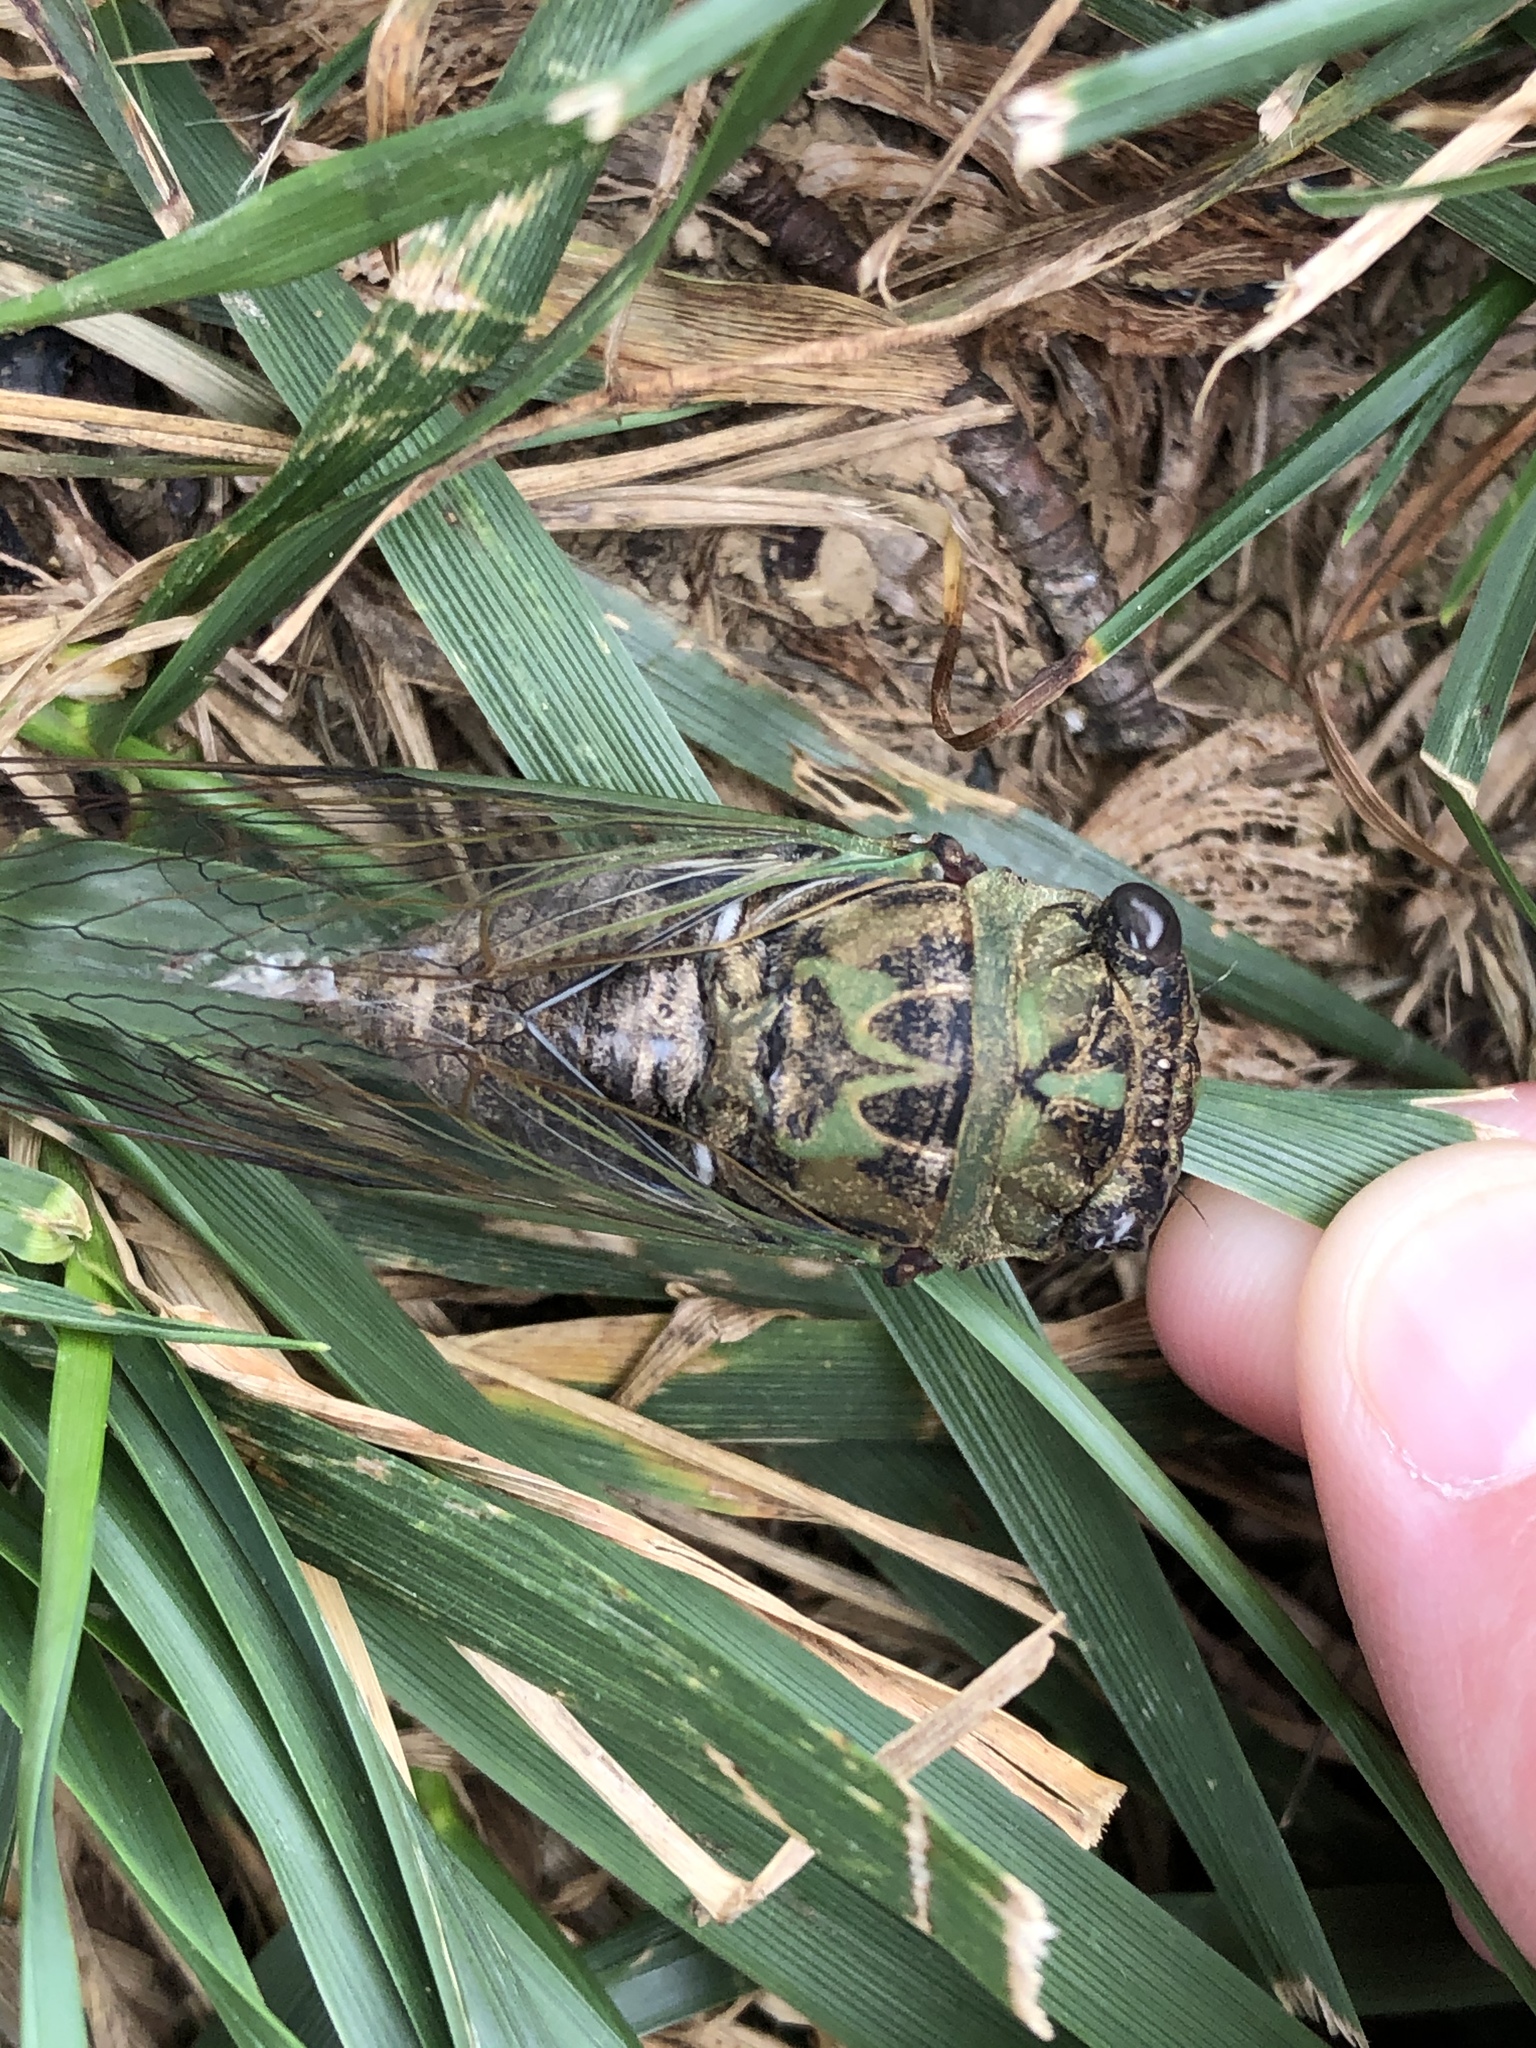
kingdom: Animalia
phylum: Arthropoda
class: Insecta
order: Hemiptera
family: Cicadidae
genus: Neotibicen
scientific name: Neotibicen pruinosus
